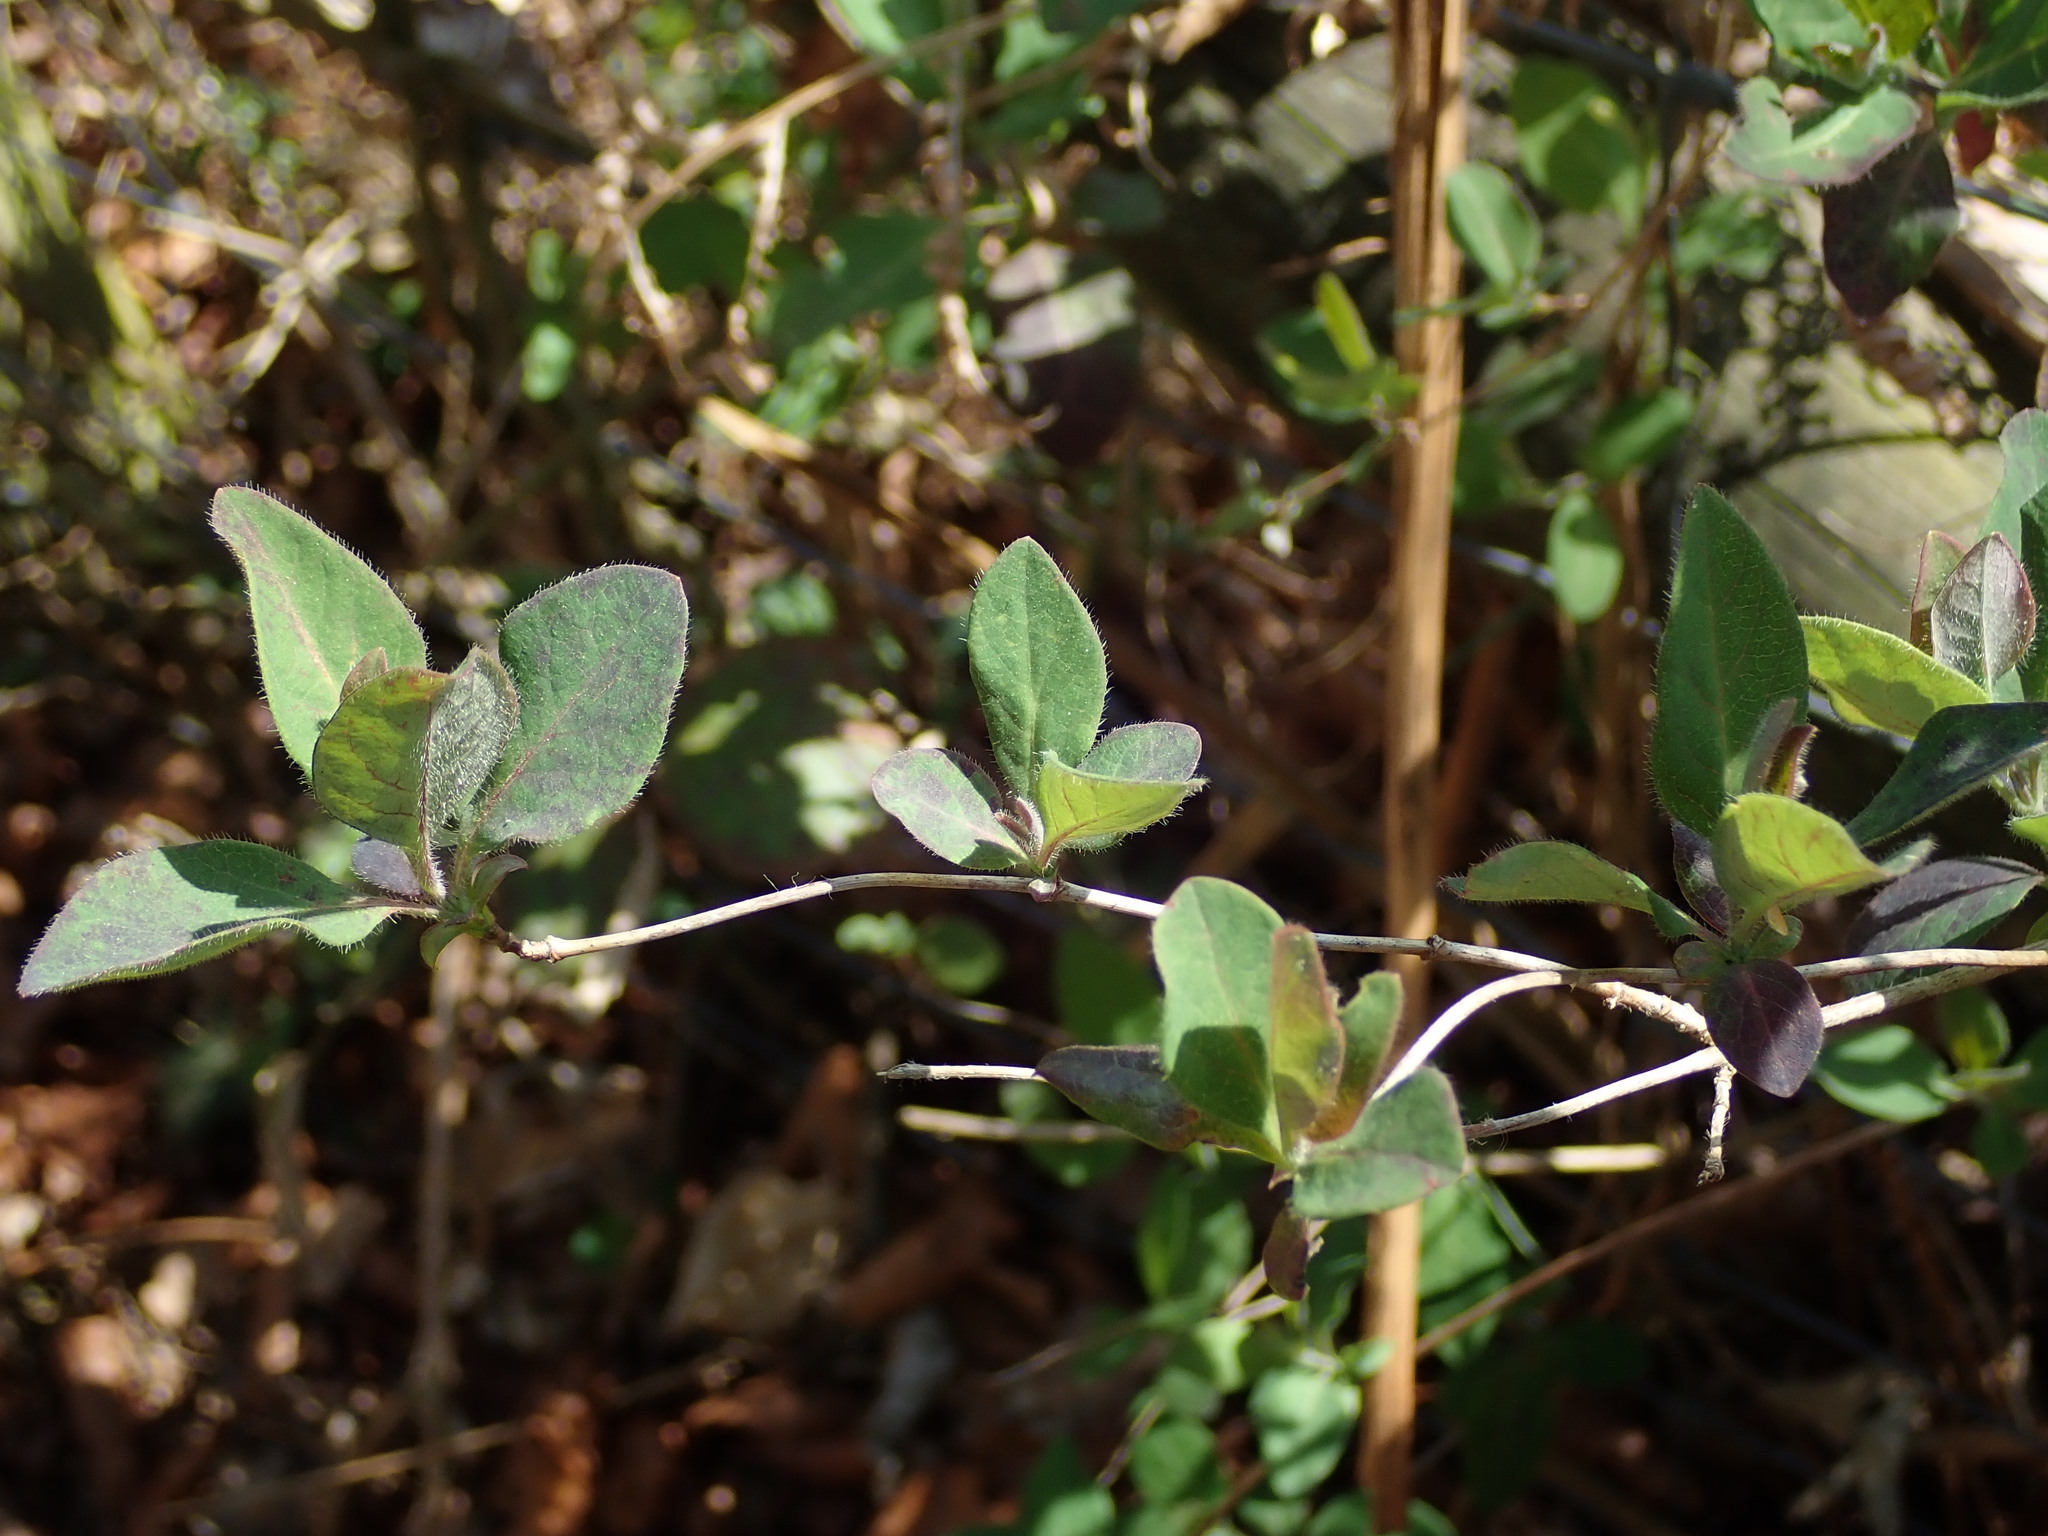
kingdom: Plantae
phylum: Tracheophyta
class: Magnoliopsida
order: Dipsacales
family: Caprifoliaceae
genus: Lonicera
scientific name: Lonicera periclymenum
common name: European honeysuckle
